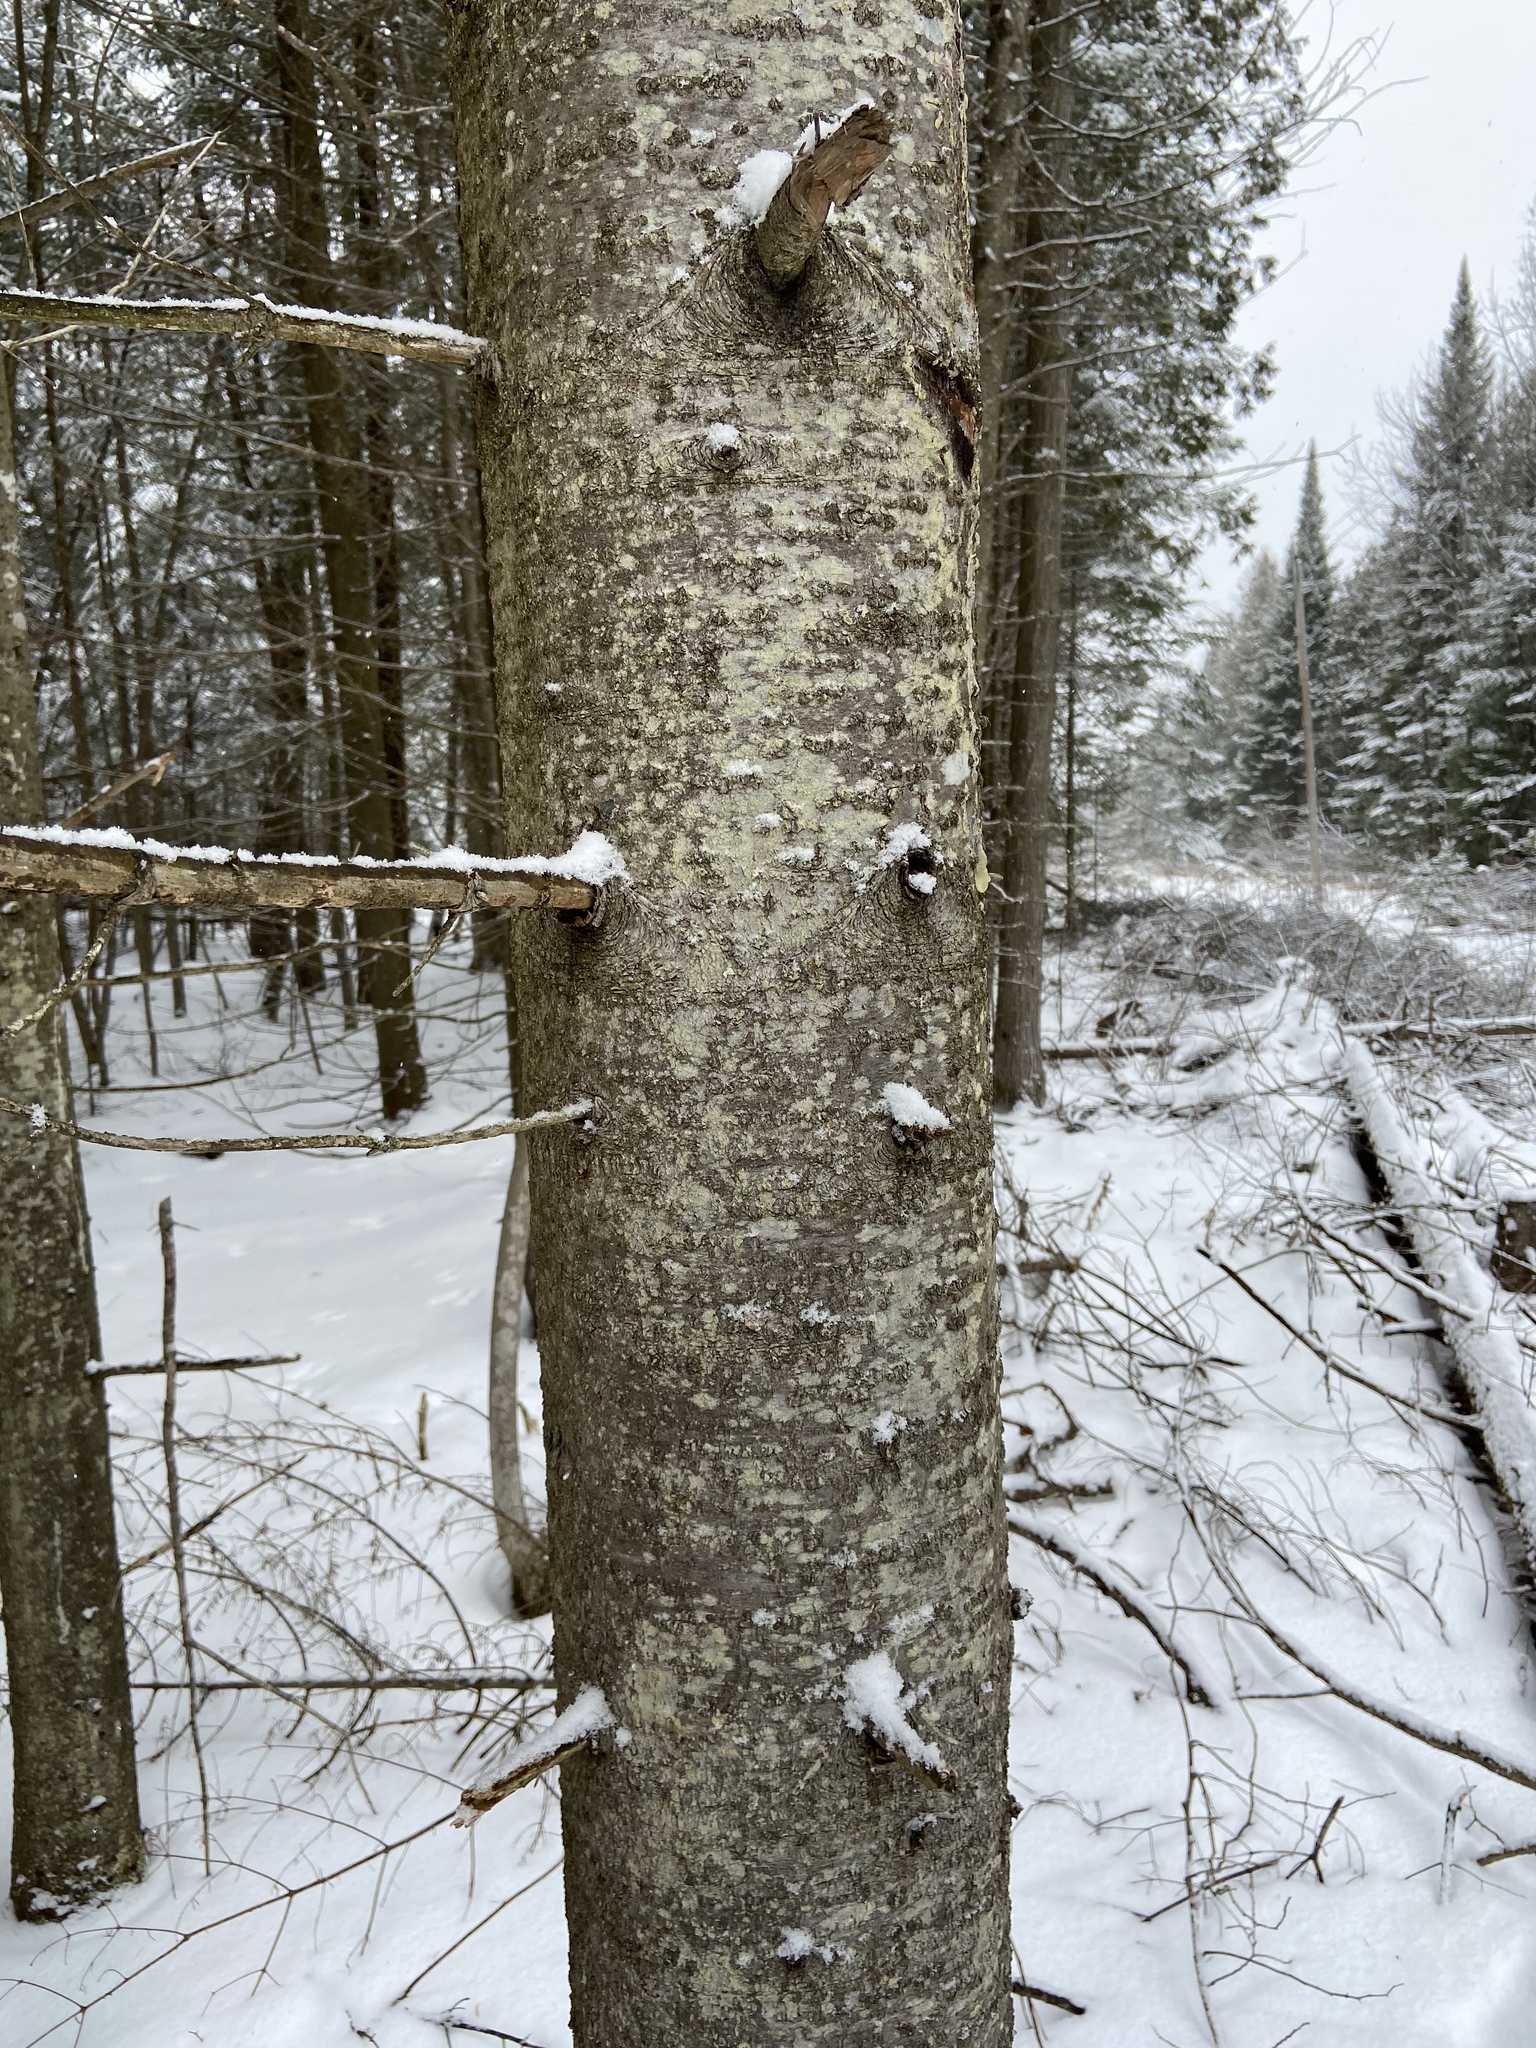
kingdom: Plantae
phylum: Tracheophyta
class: Pinopsida
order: Pinales
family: Pinaceae
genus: Abies
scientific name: Abies balsamea
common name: Balsam fir
